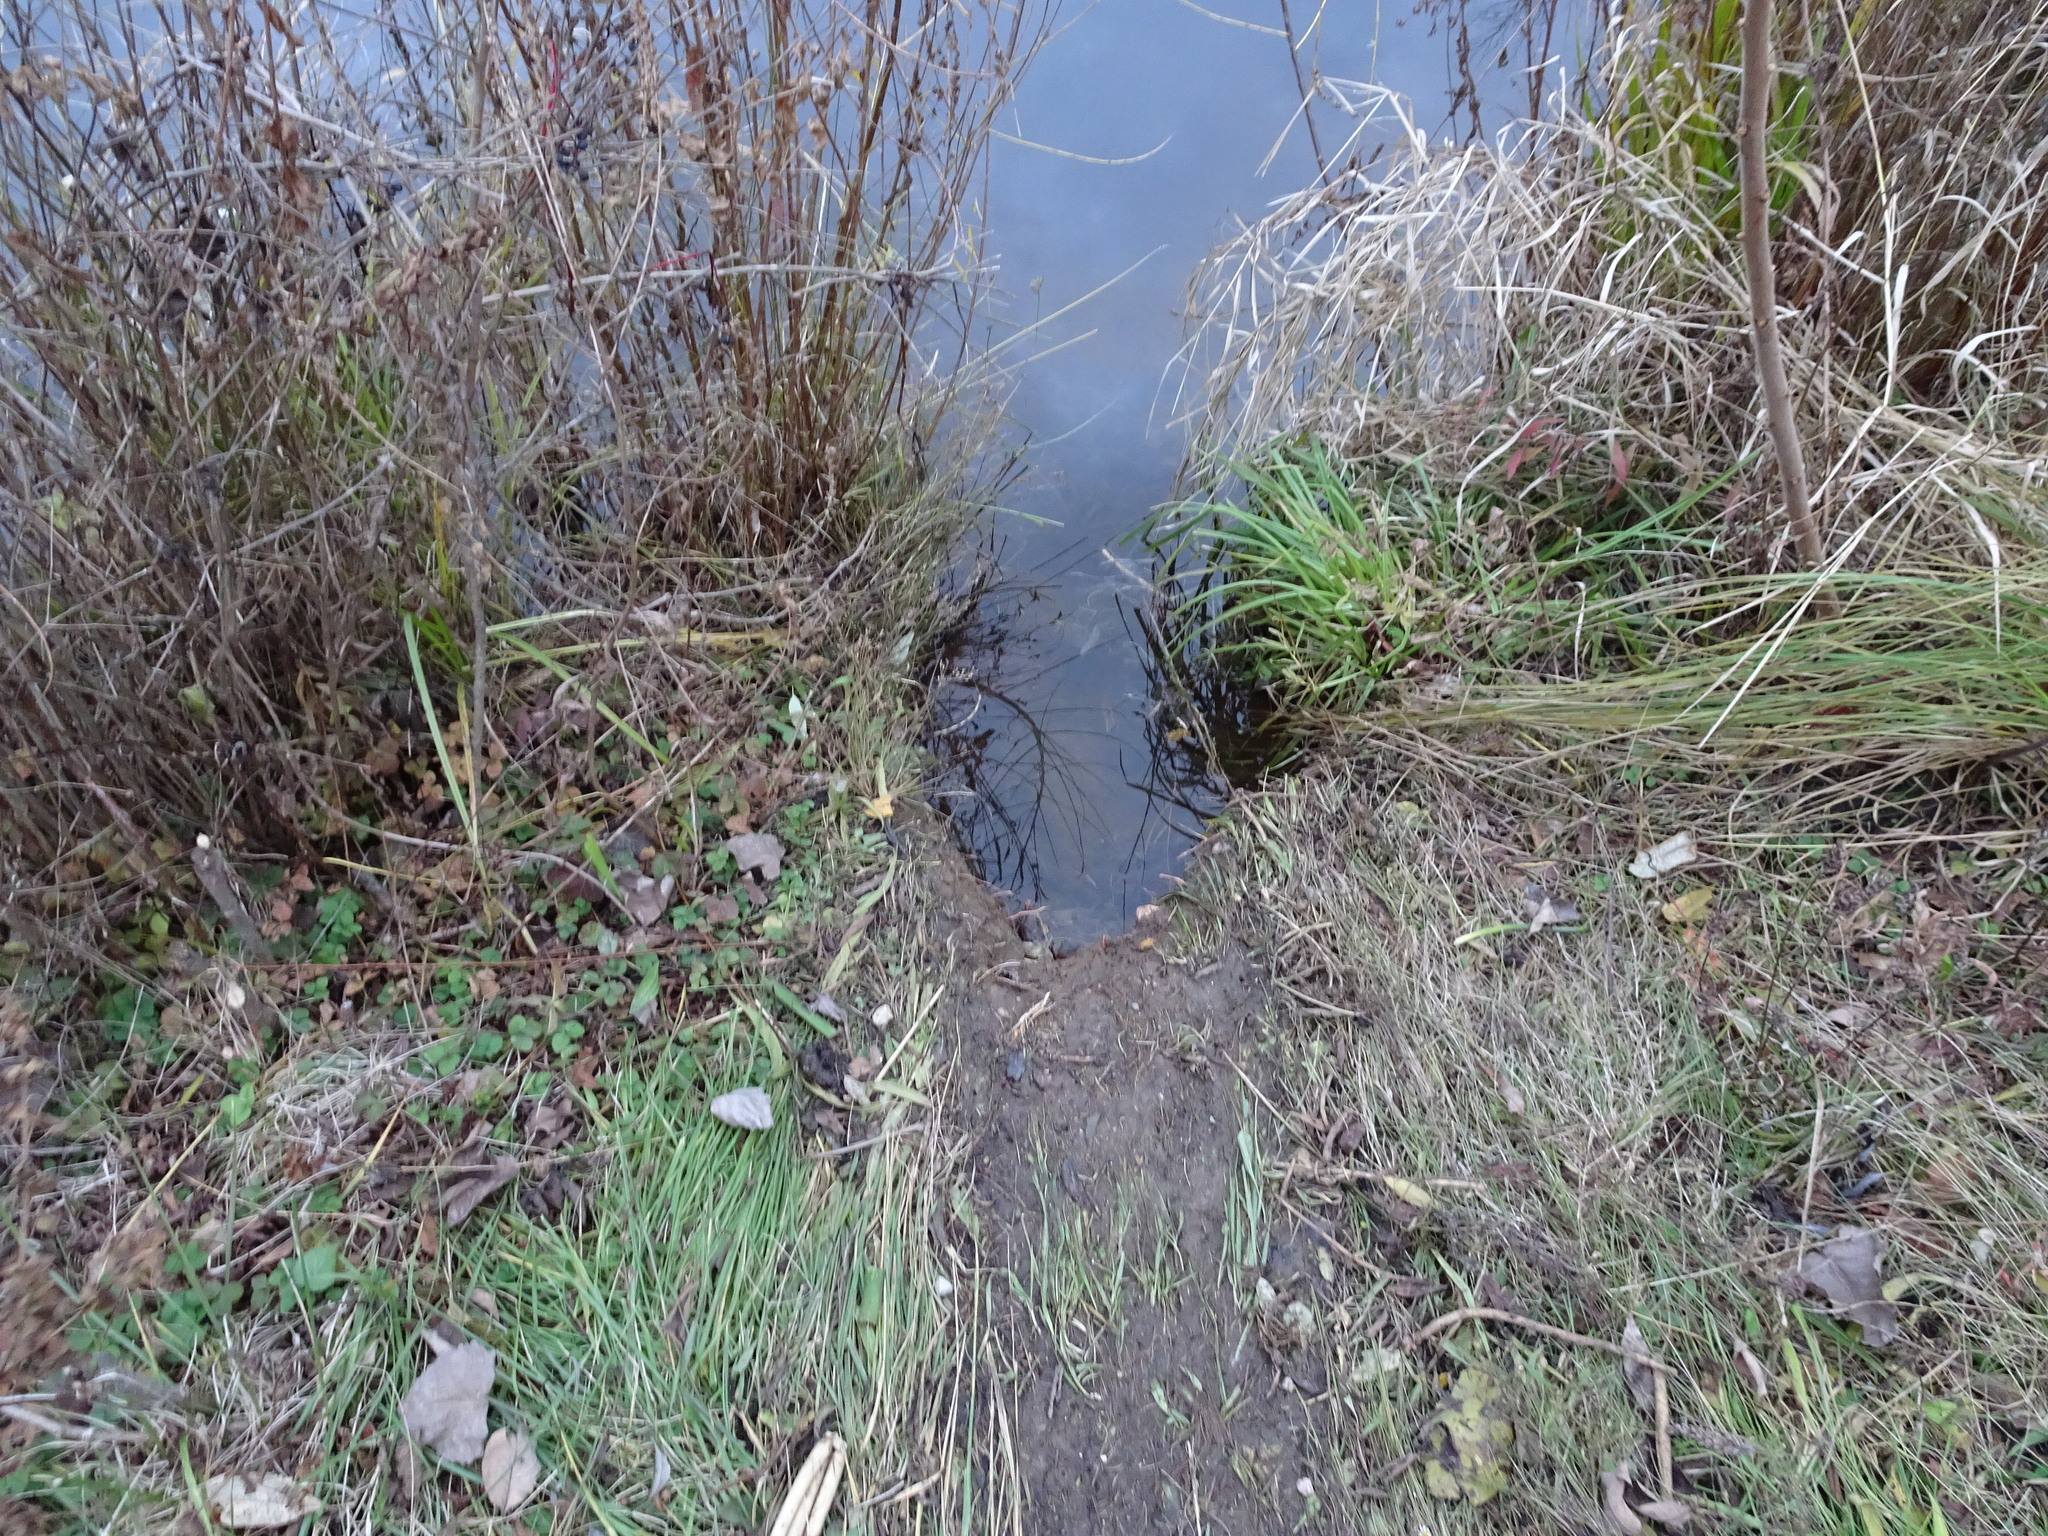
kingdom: Animalia
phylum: Chordata
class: Mammalia
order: Rodentia
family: Castoridae
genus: Castor
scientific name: Castor canadensis
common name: American beaver
